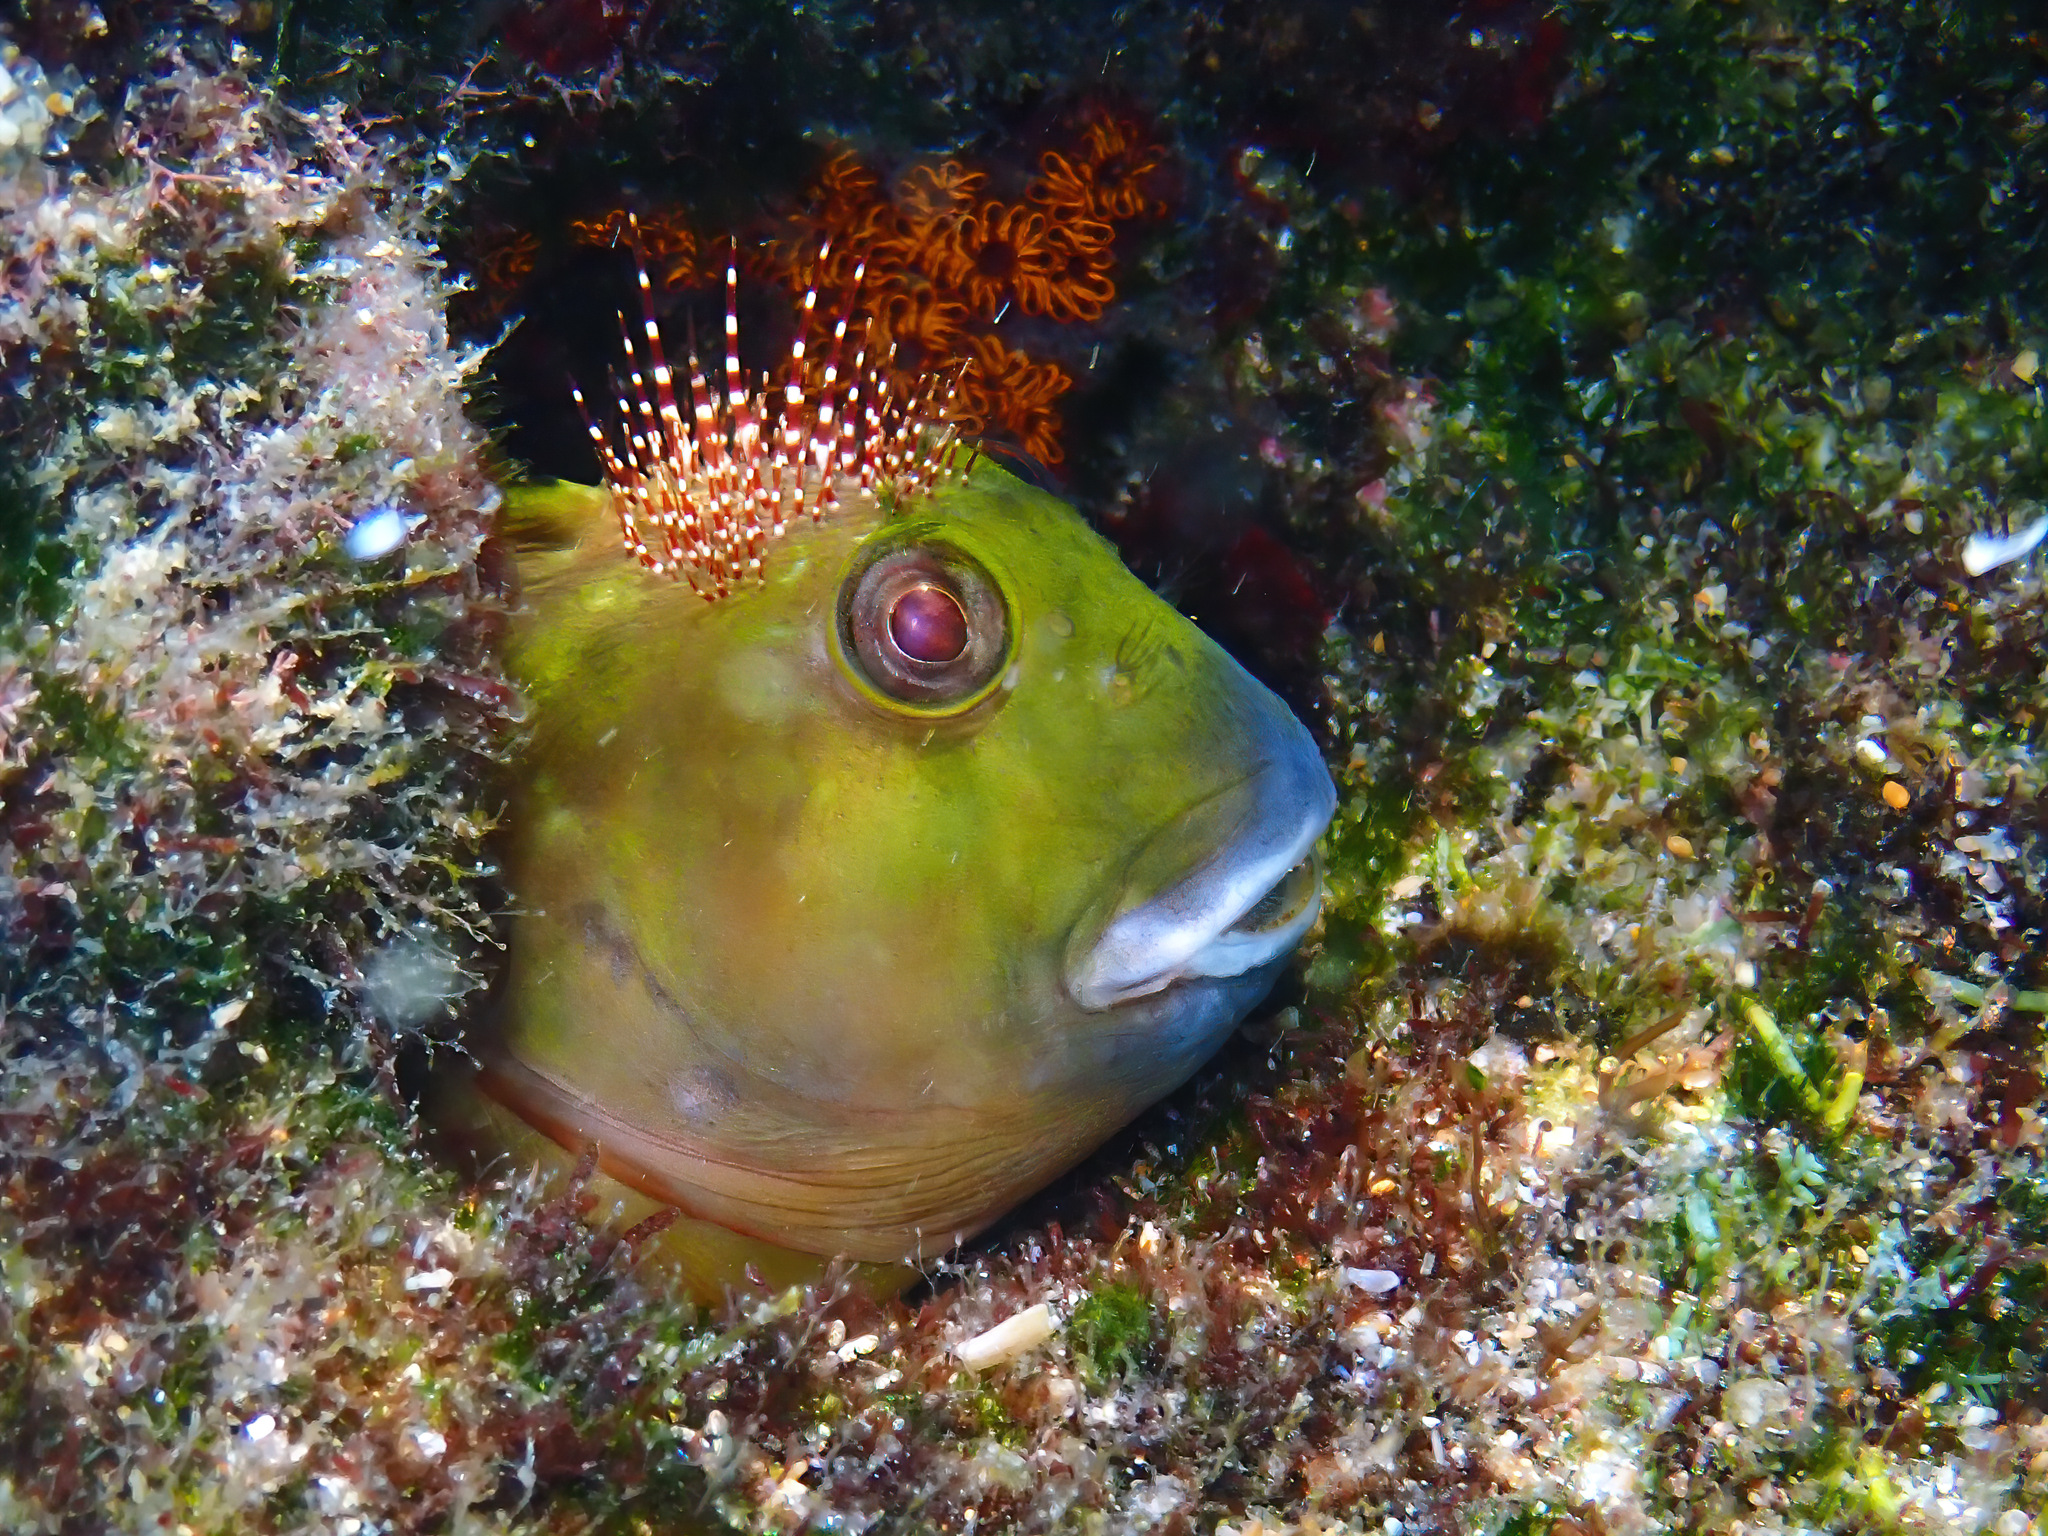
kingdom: Animalia
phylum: Chordata
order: Perciformes
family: Blenniidae
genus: Scartella
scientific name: Scartella cristata
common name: Molly miller
